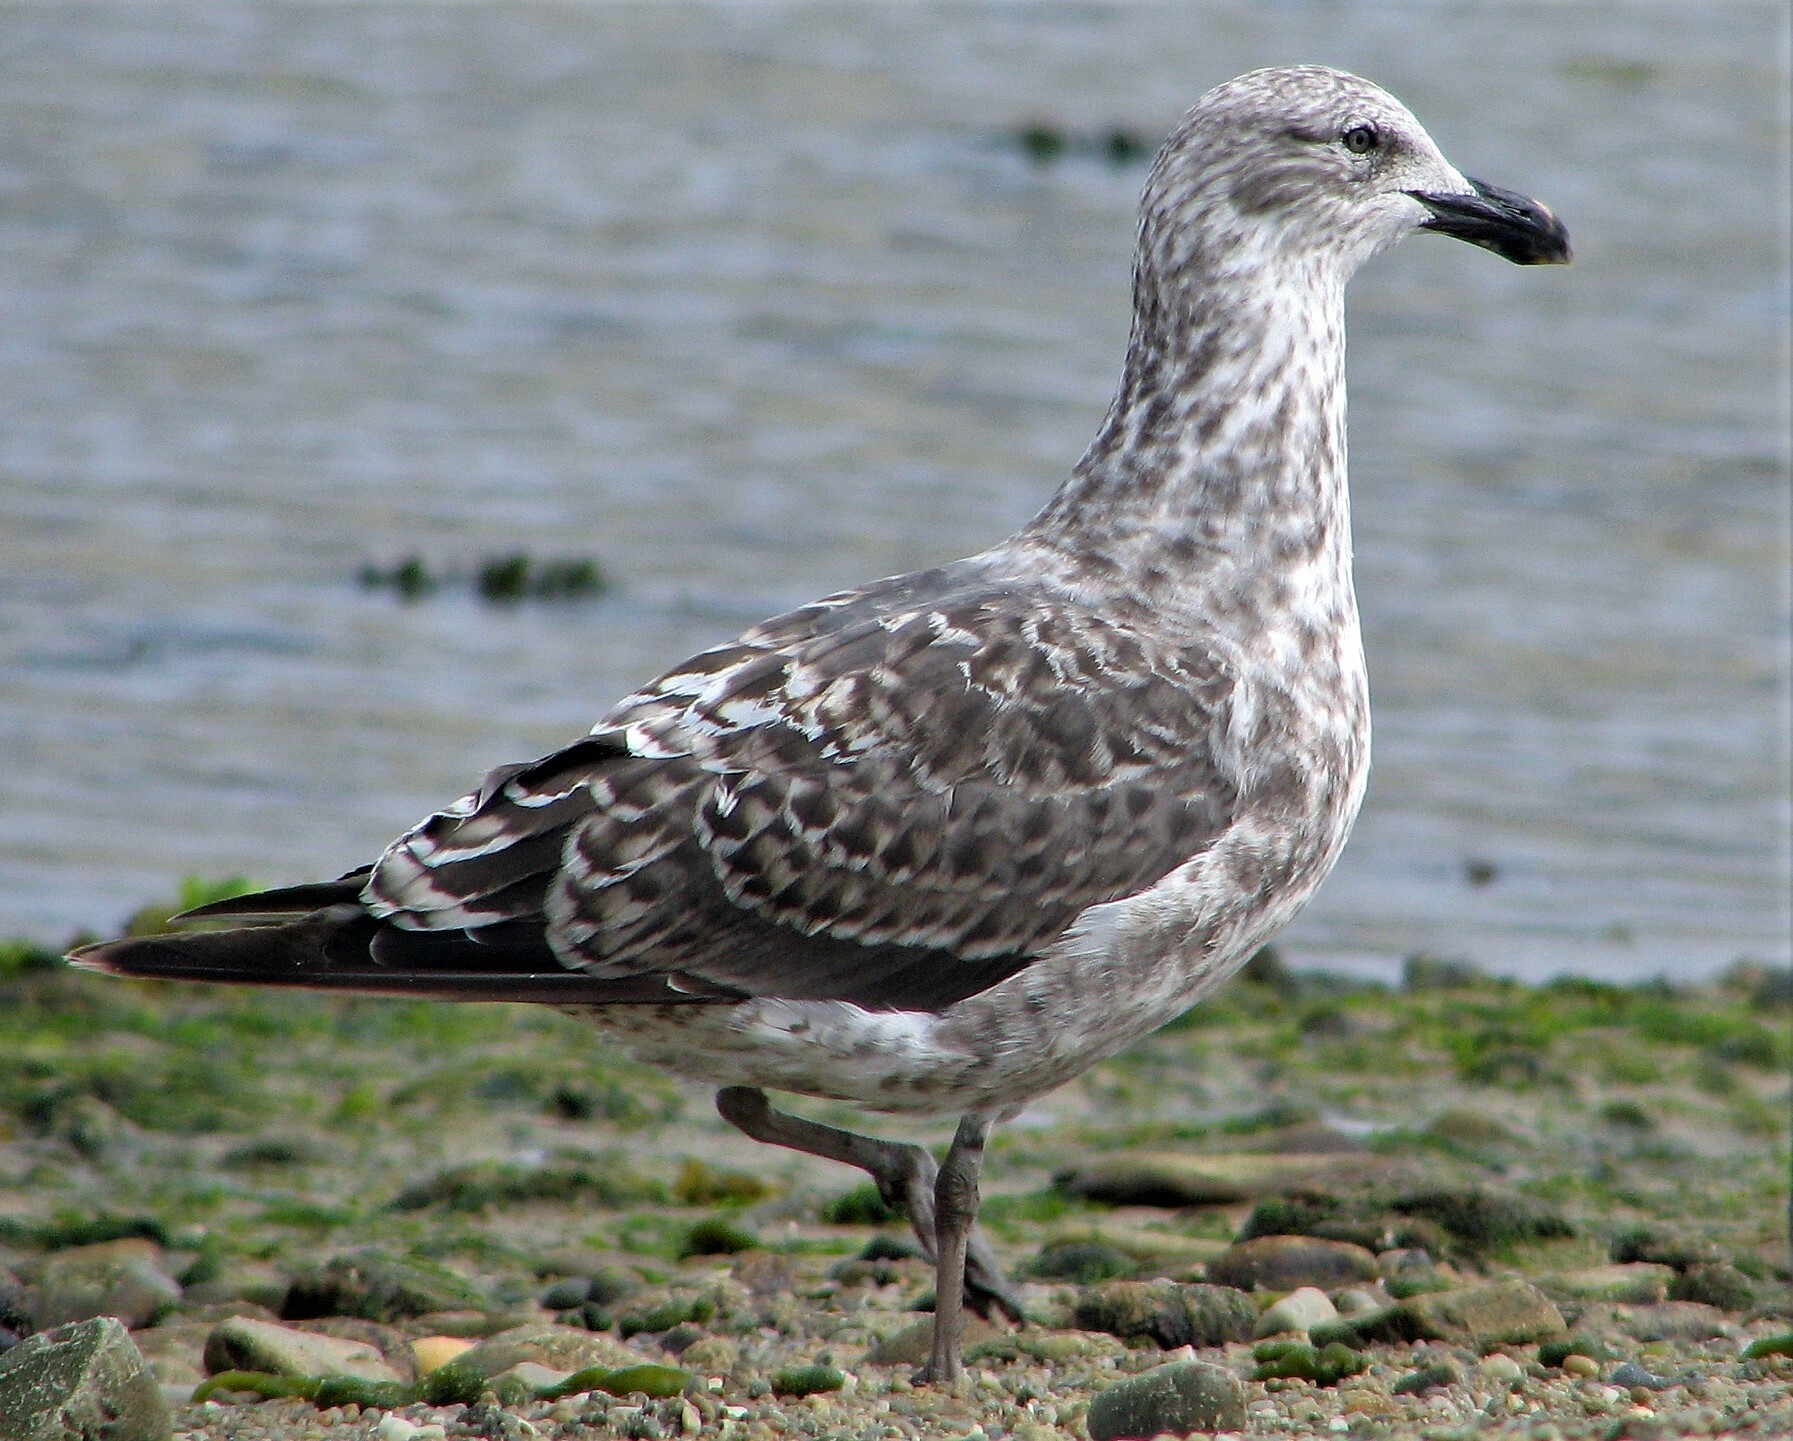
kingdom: Animalia
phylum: Chordata
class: Aves
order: Charadriiformes
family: Laridae
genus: Larus
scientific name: Larus dominicanus
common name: Kelp gull
